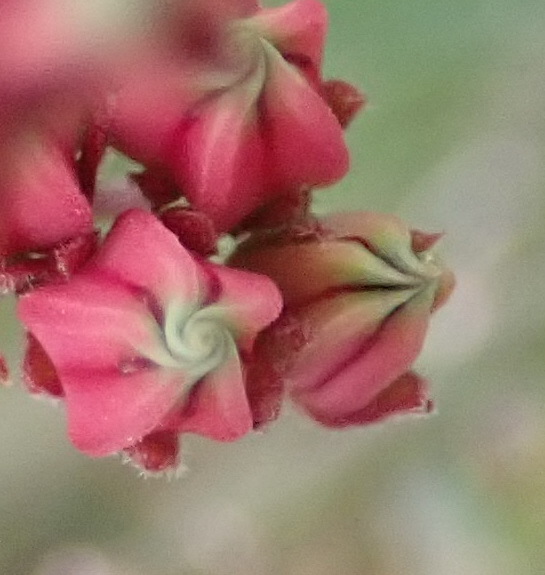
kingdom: Plantae
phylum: Tracheophyta
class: Magnoliopsida
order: Gentianales
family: Apocynaceae
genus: Microloma
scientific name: Microloma sagittatum
